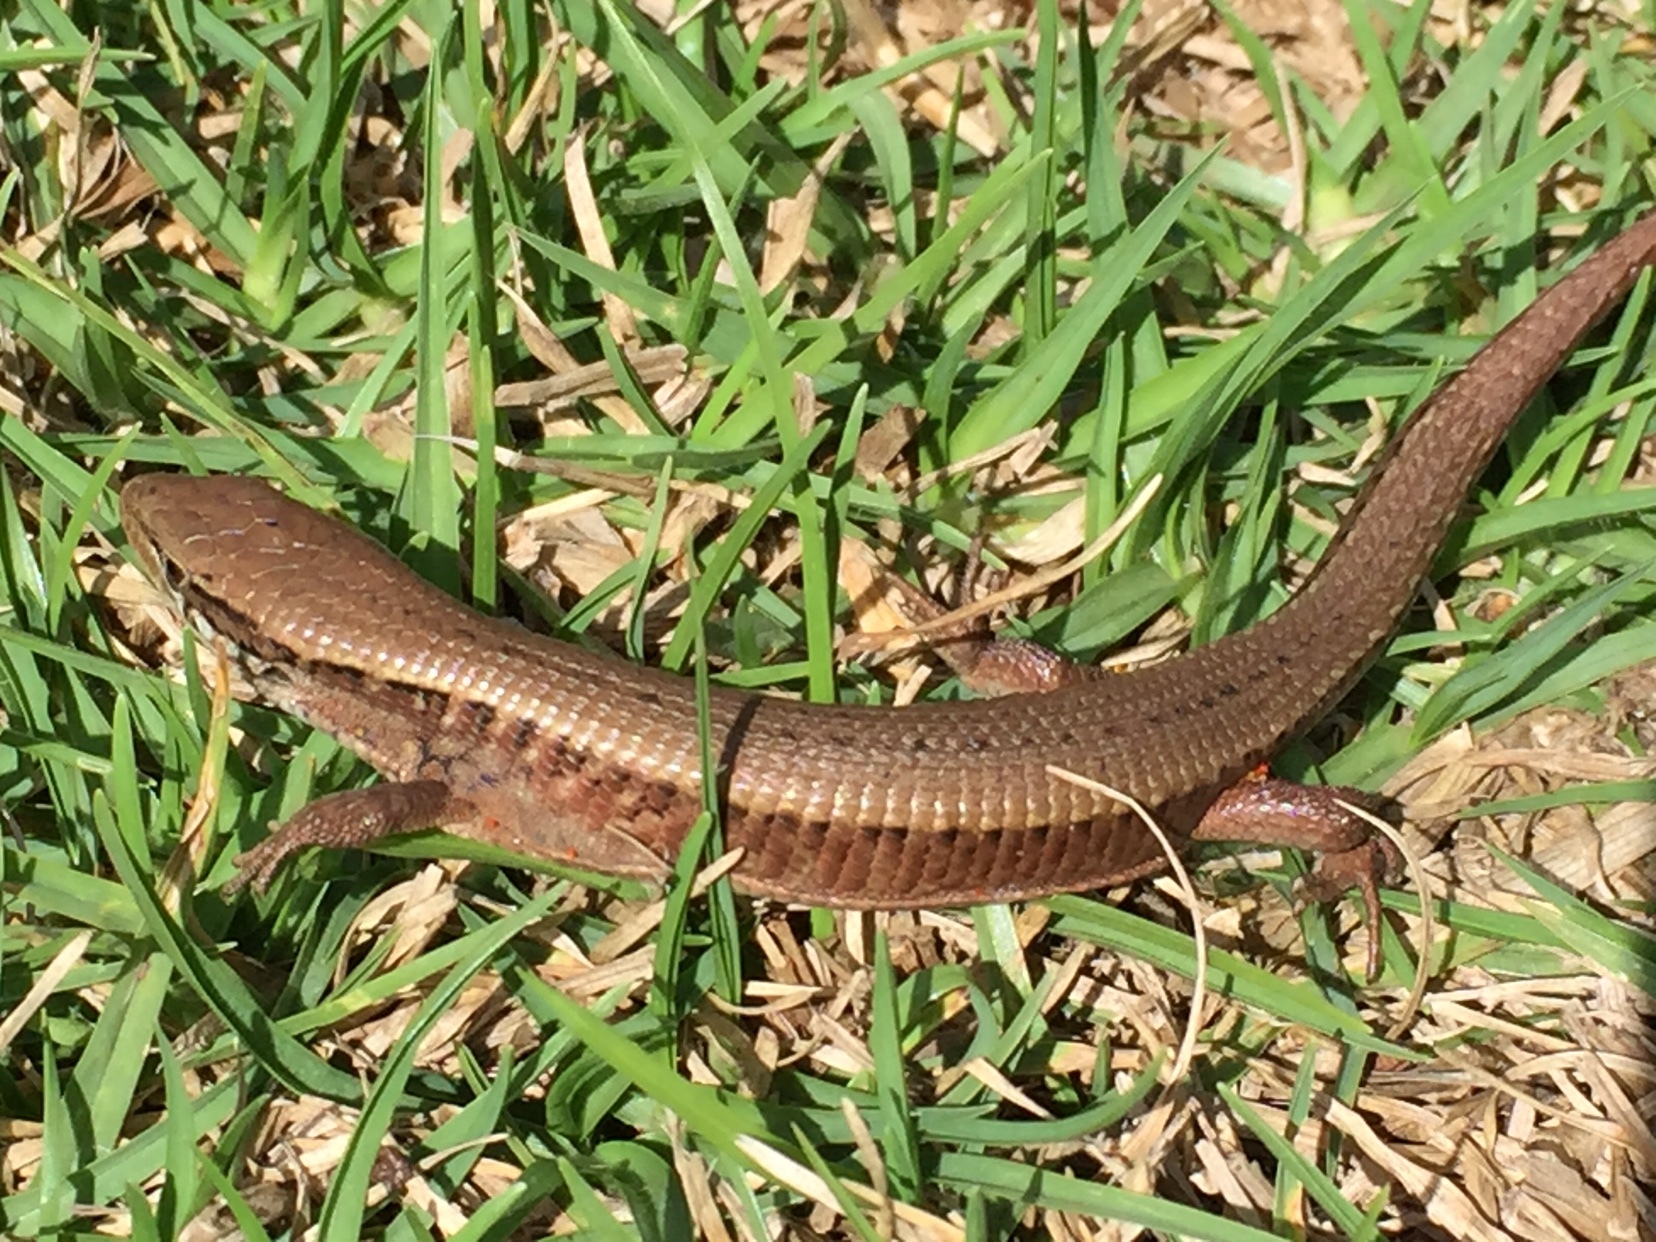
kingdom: Animalia
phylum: Chordata
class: Squamata
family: Anguidae
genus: Abronia
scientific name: Abronia moreletii
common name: Morelet's alligator lizard
